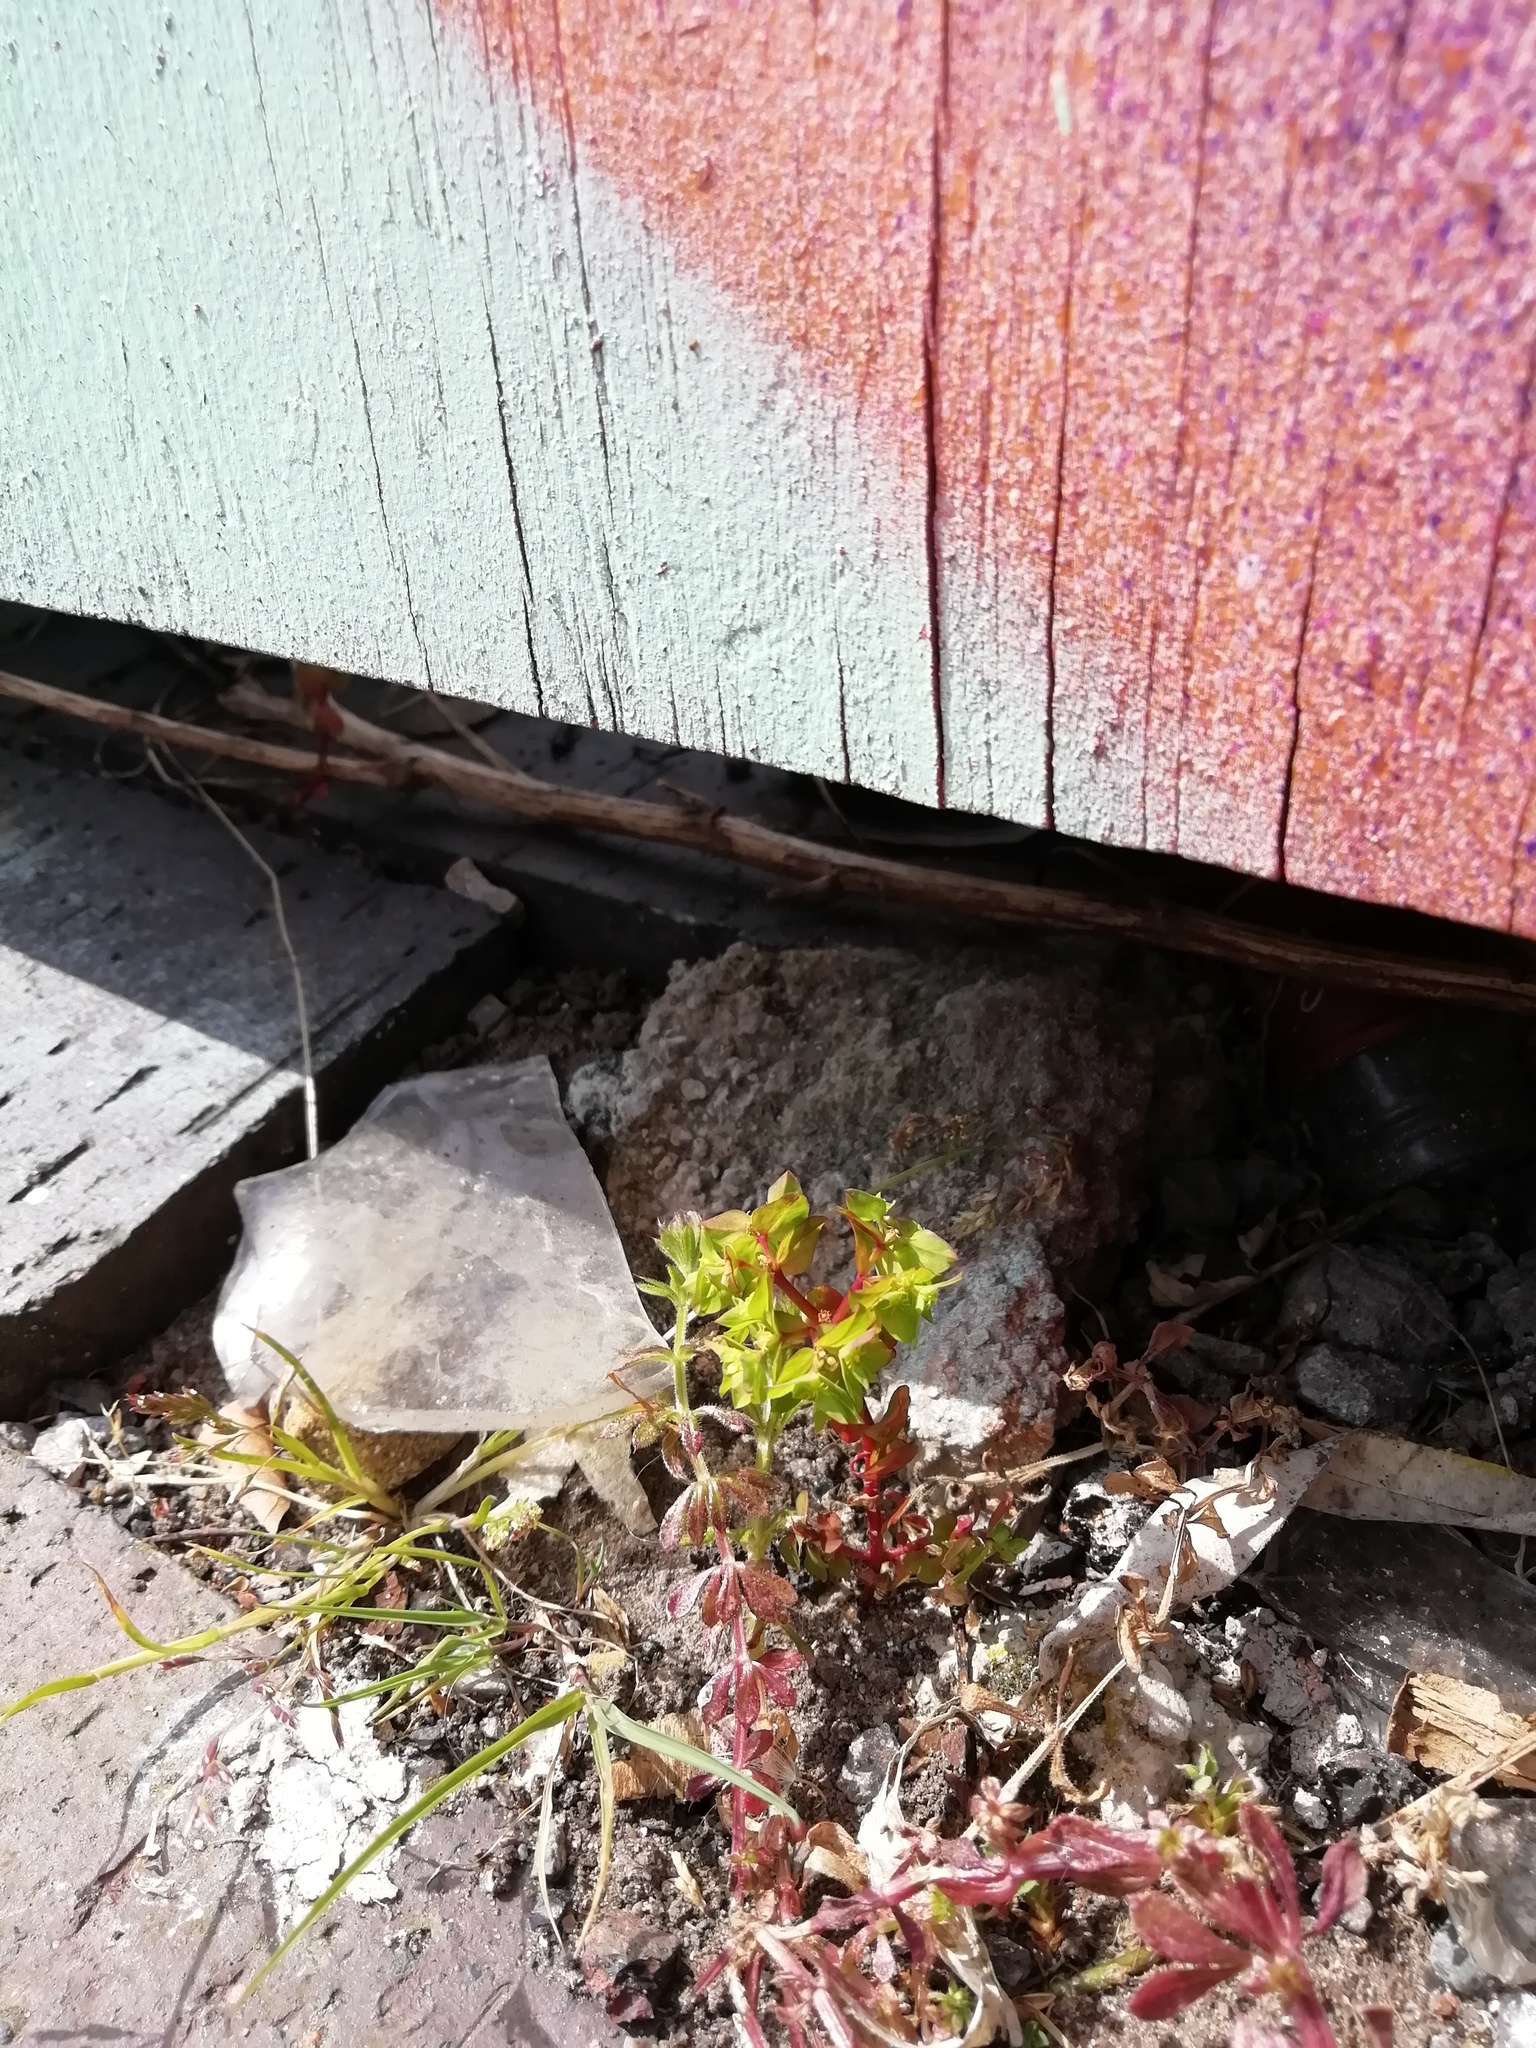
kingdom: Plantae
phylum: Tracheophyta
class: Magnoliopsida
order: Malpighiales
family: Euphorbiaceae
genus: Euphorbia
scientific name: Euphorbia peplus
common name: Petty spurge
